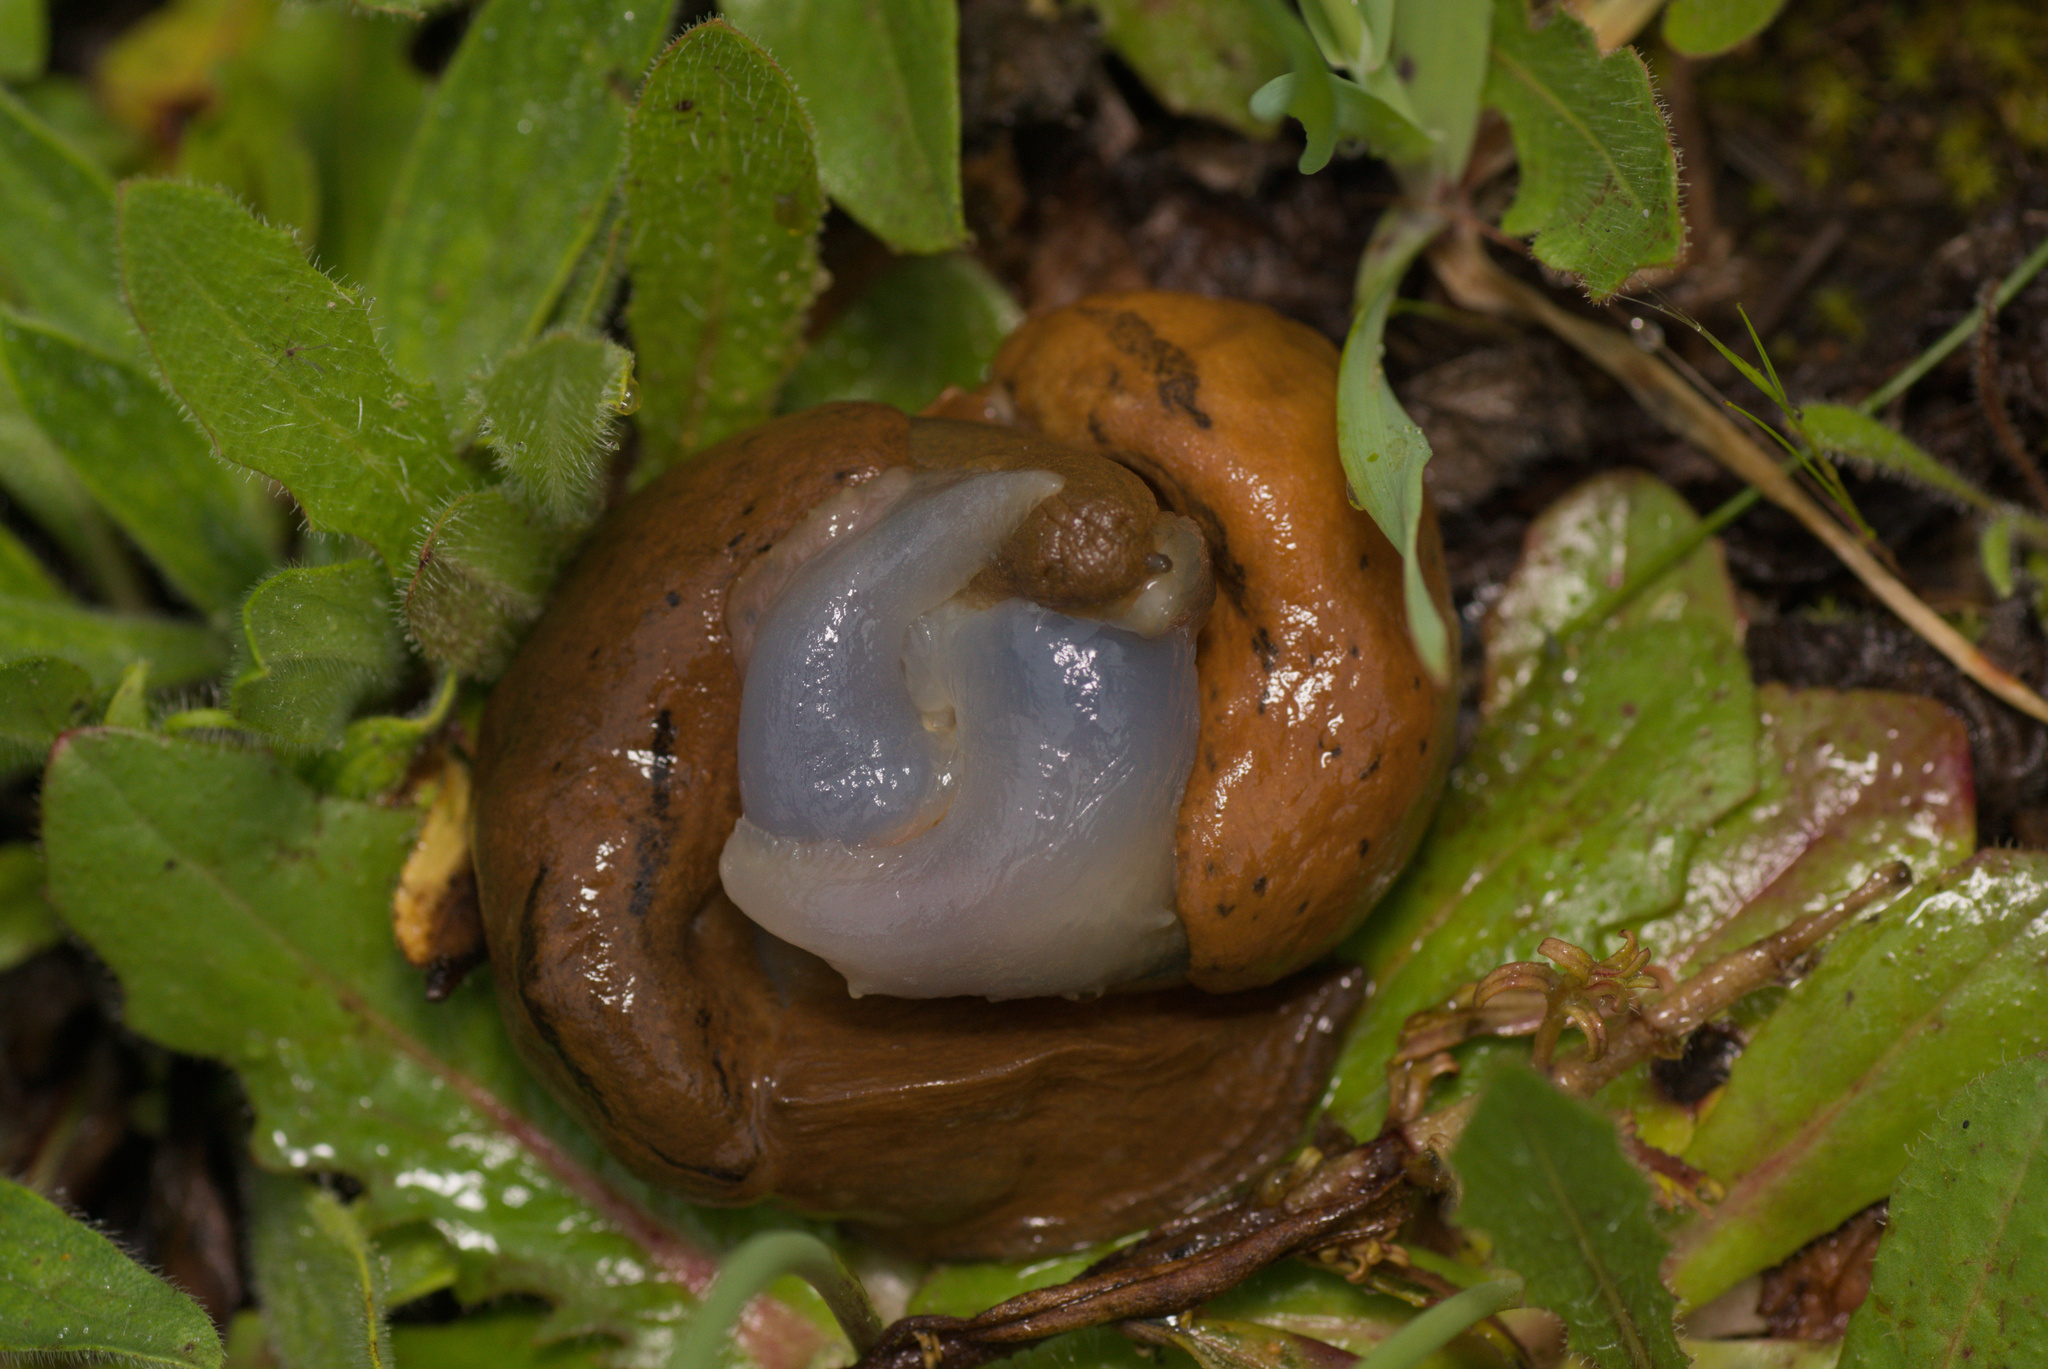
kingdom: Animalia
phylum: Mollusca
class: Gastropoda
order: Stylommatophora
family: Parmacellidae
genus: Drusia
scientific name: Drusia valenciennii
